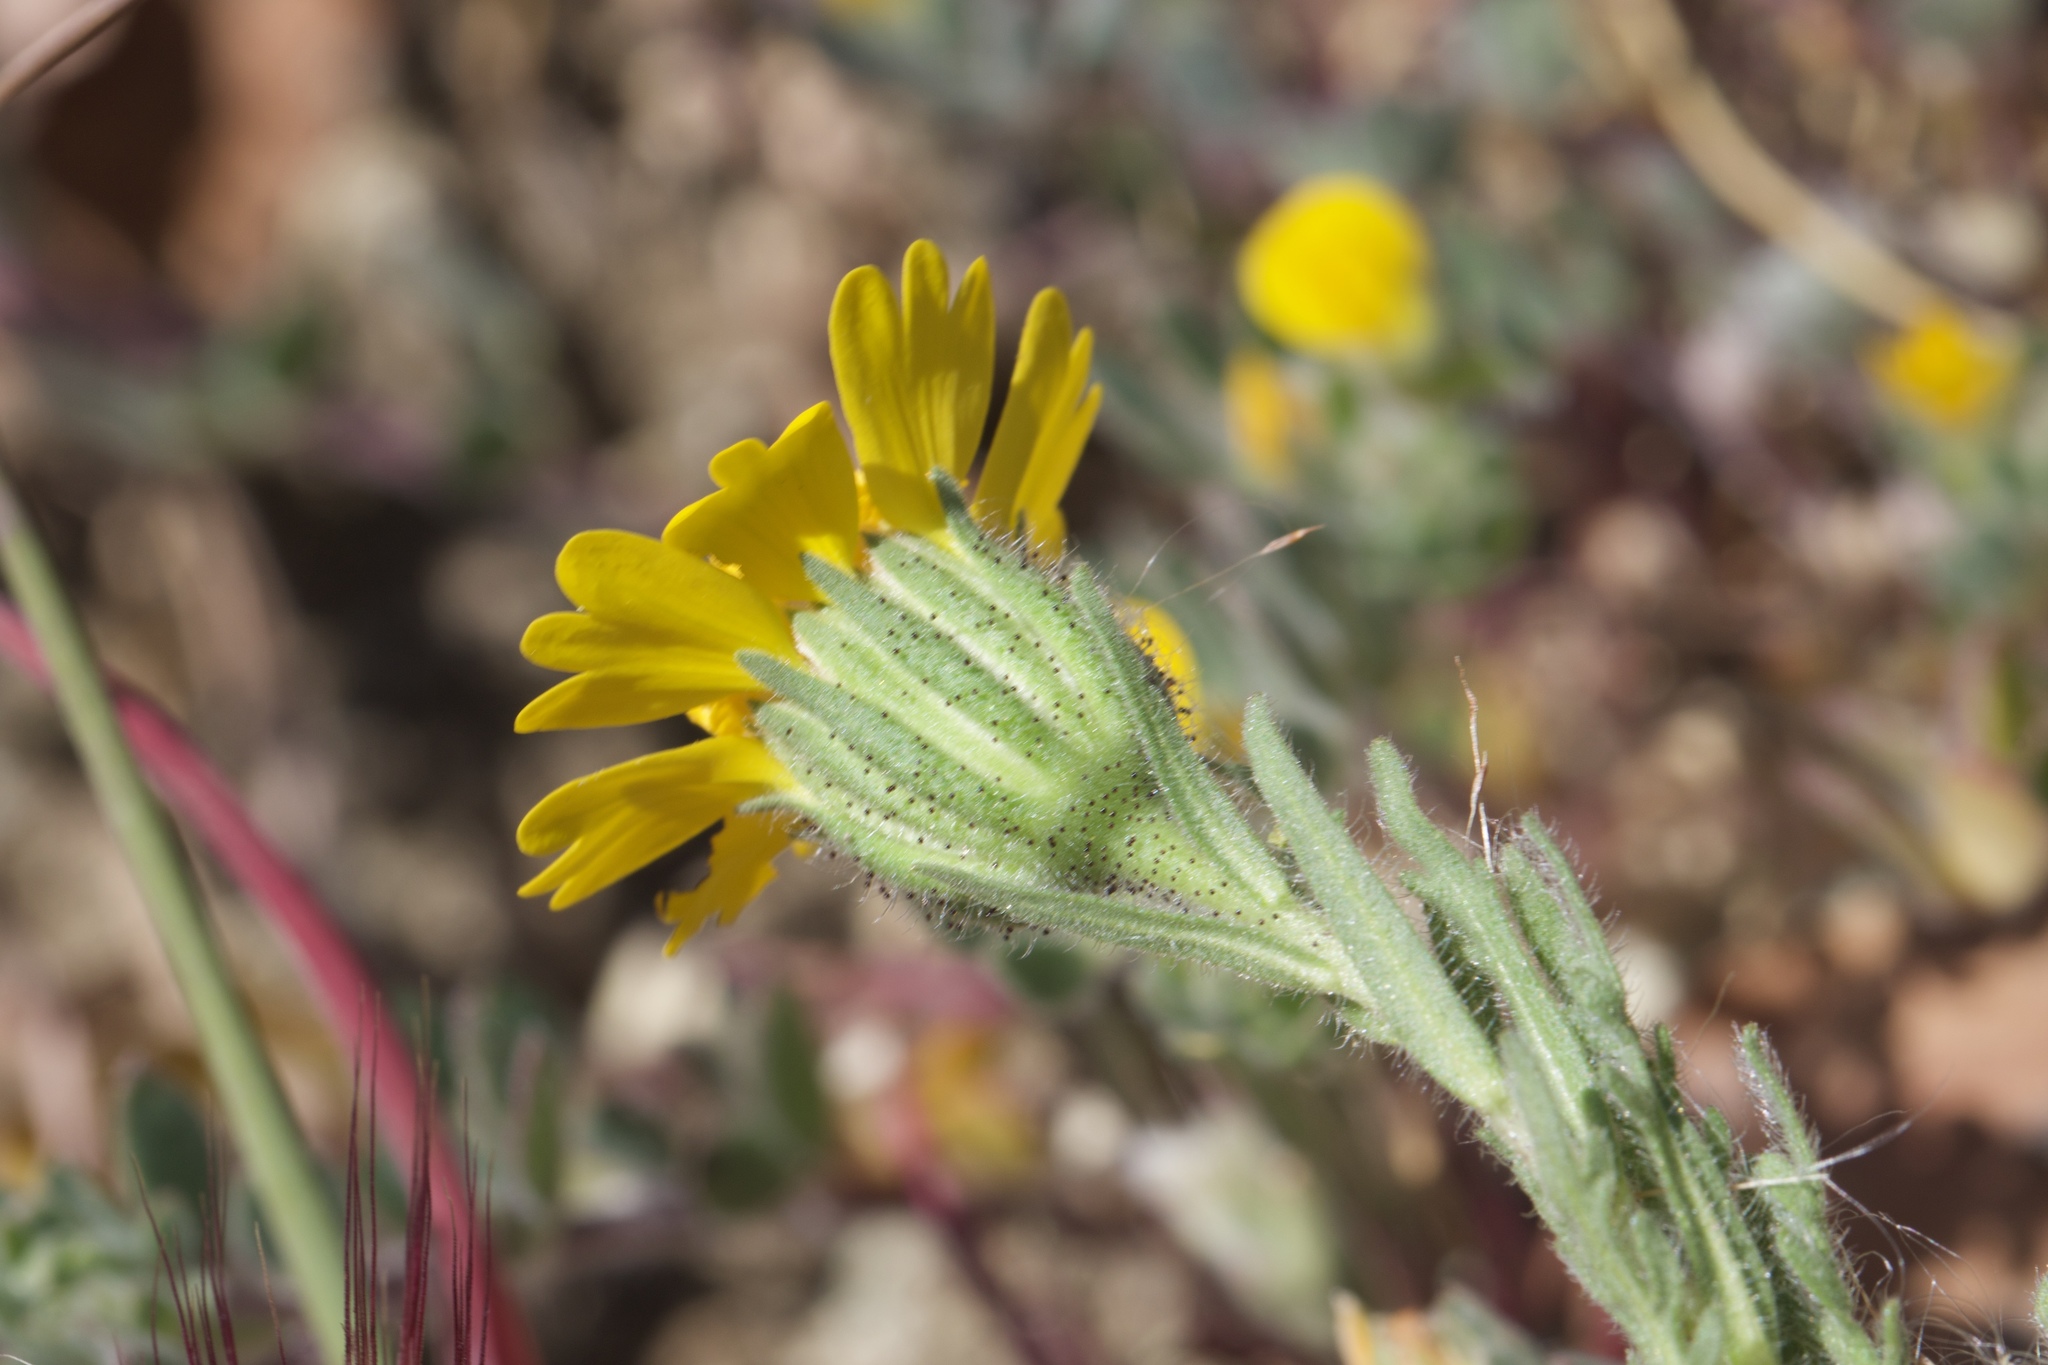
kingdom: Plantae
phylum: Tracheophyta
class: Magnoliopsida
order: Asterales
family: Asteraceae
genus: Layia
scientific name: Layia septentrionalis
